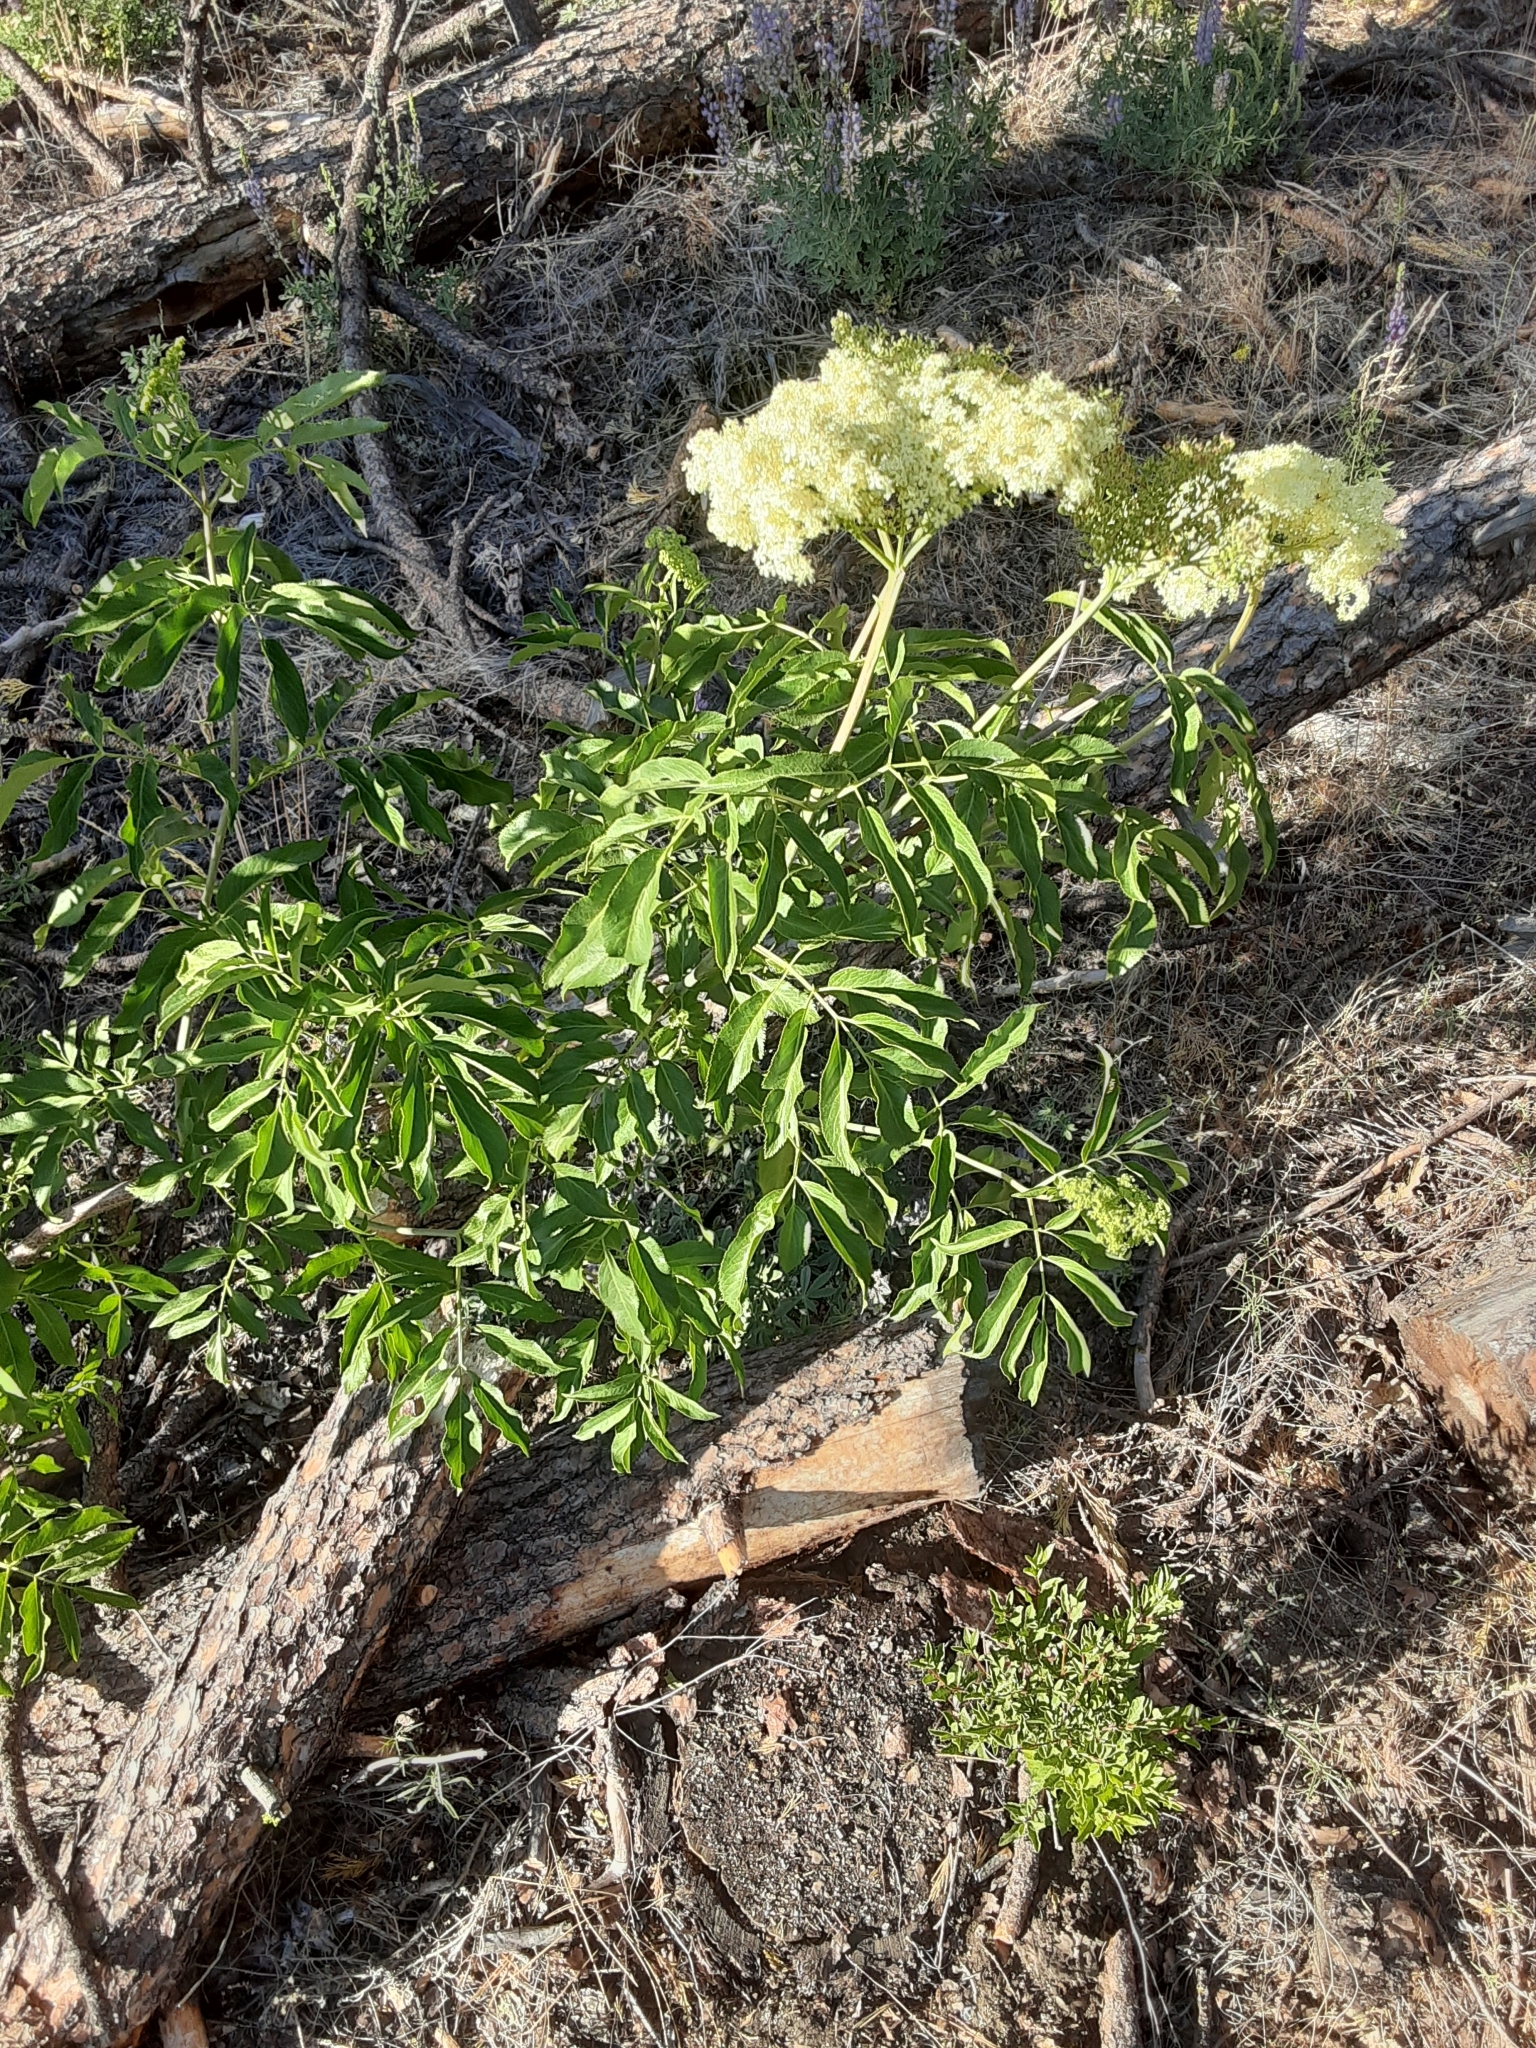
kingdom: Plantae
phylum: Tracheophyta
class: Magnoliopsida
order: Dipsacales
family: Viburnaceae
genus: Sambucus
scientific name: Sambucus cerulea
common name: Blue elder
